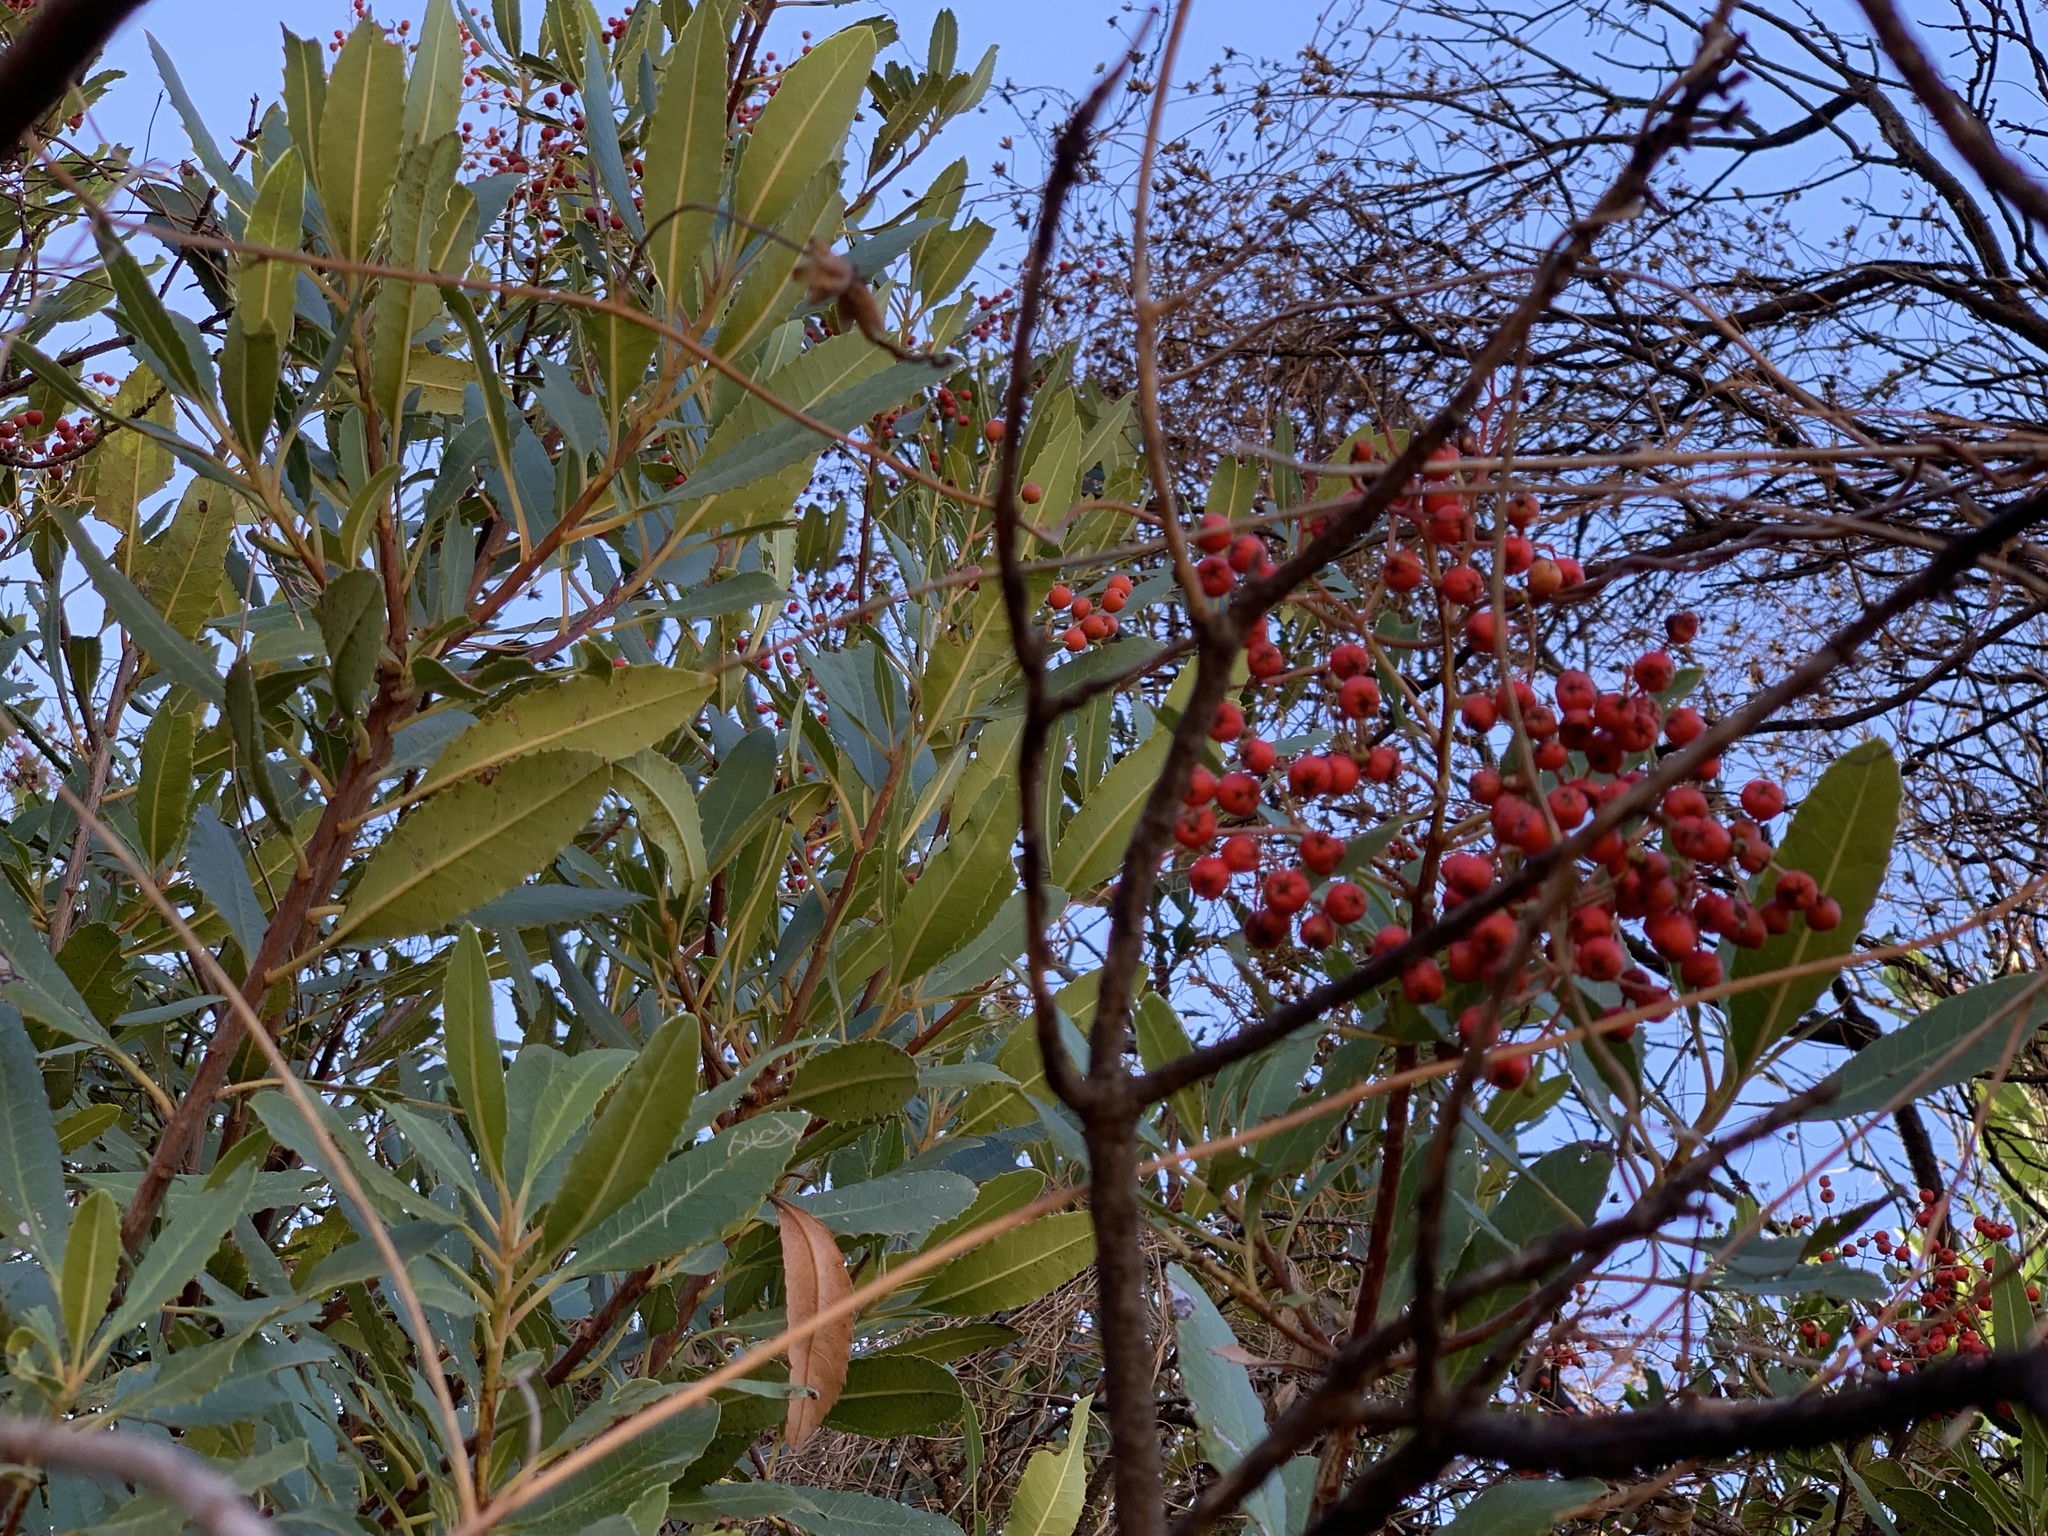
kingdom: Plantae
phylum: Tracheophyta
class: Magnoliopsida
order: Rosales
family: Rosaceae
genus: Heteromeles
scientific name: Heteromeles arbutifolia
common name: California-holly
